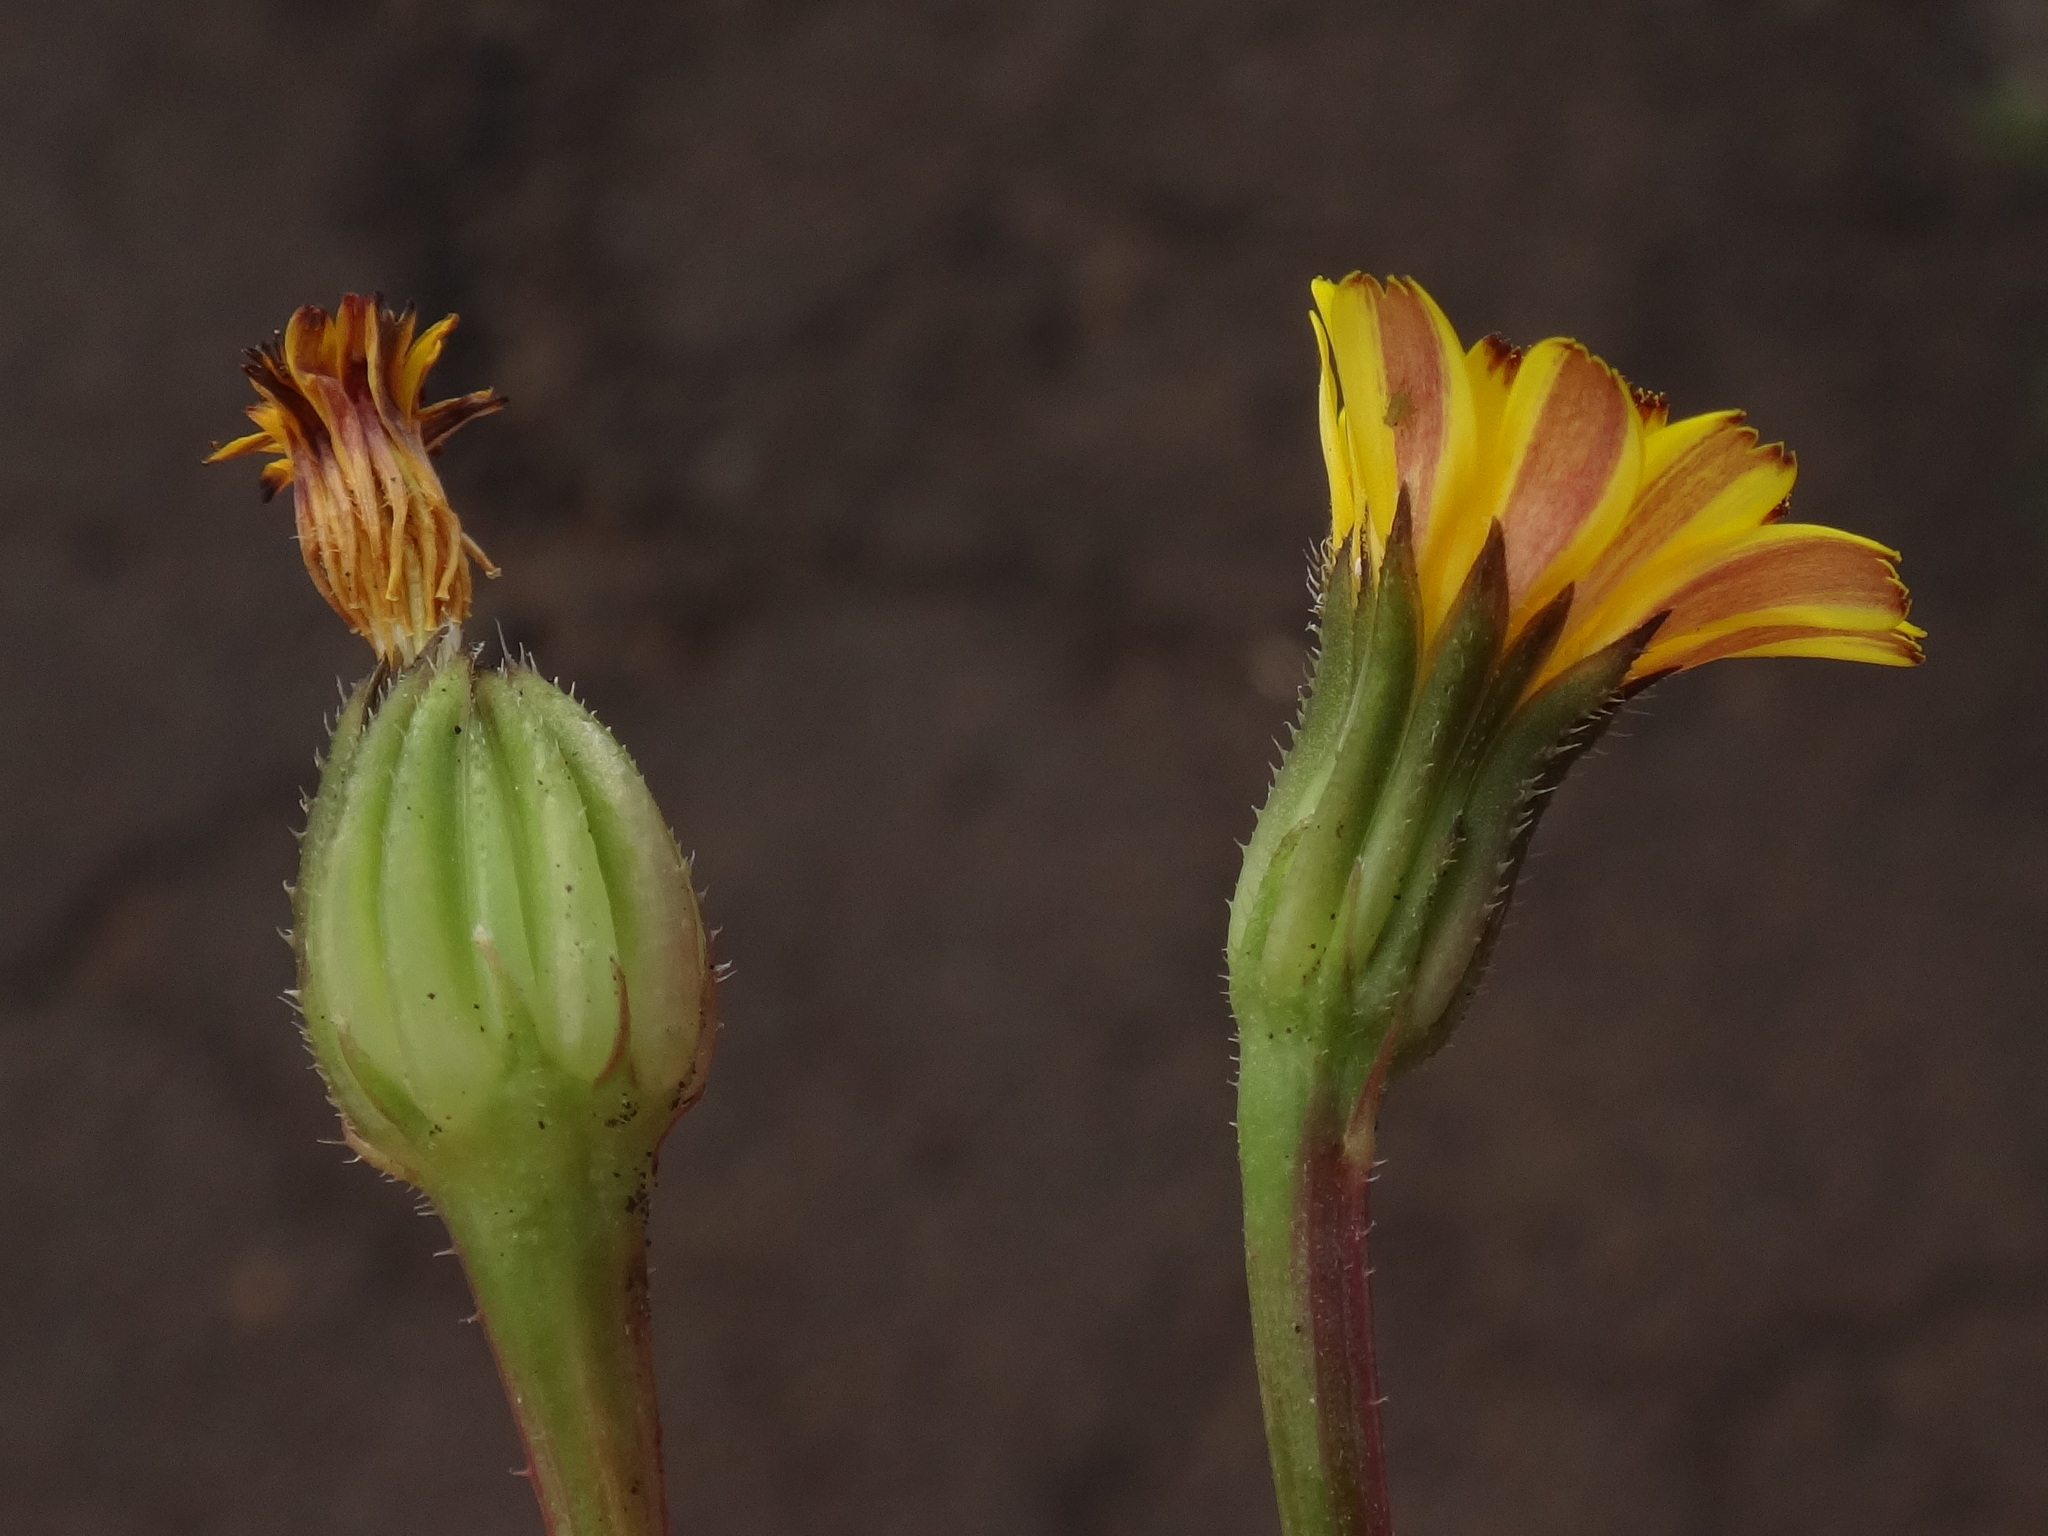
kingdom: Plantae
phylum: Tracheophyta
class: Magnoliopsida
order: Asterales
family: Asteraceae
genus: Hedypnois
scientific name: Hedypnois rhagadioloides
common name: Cretan weed
